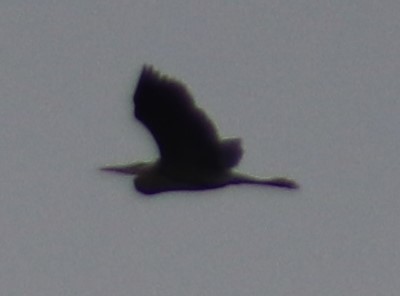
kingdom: Animalia
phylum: Chordata
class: Aves
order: Pelecaniformes
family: Ardeidae
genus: Ardea
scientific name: Ardea herodias
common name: Great blue heron
